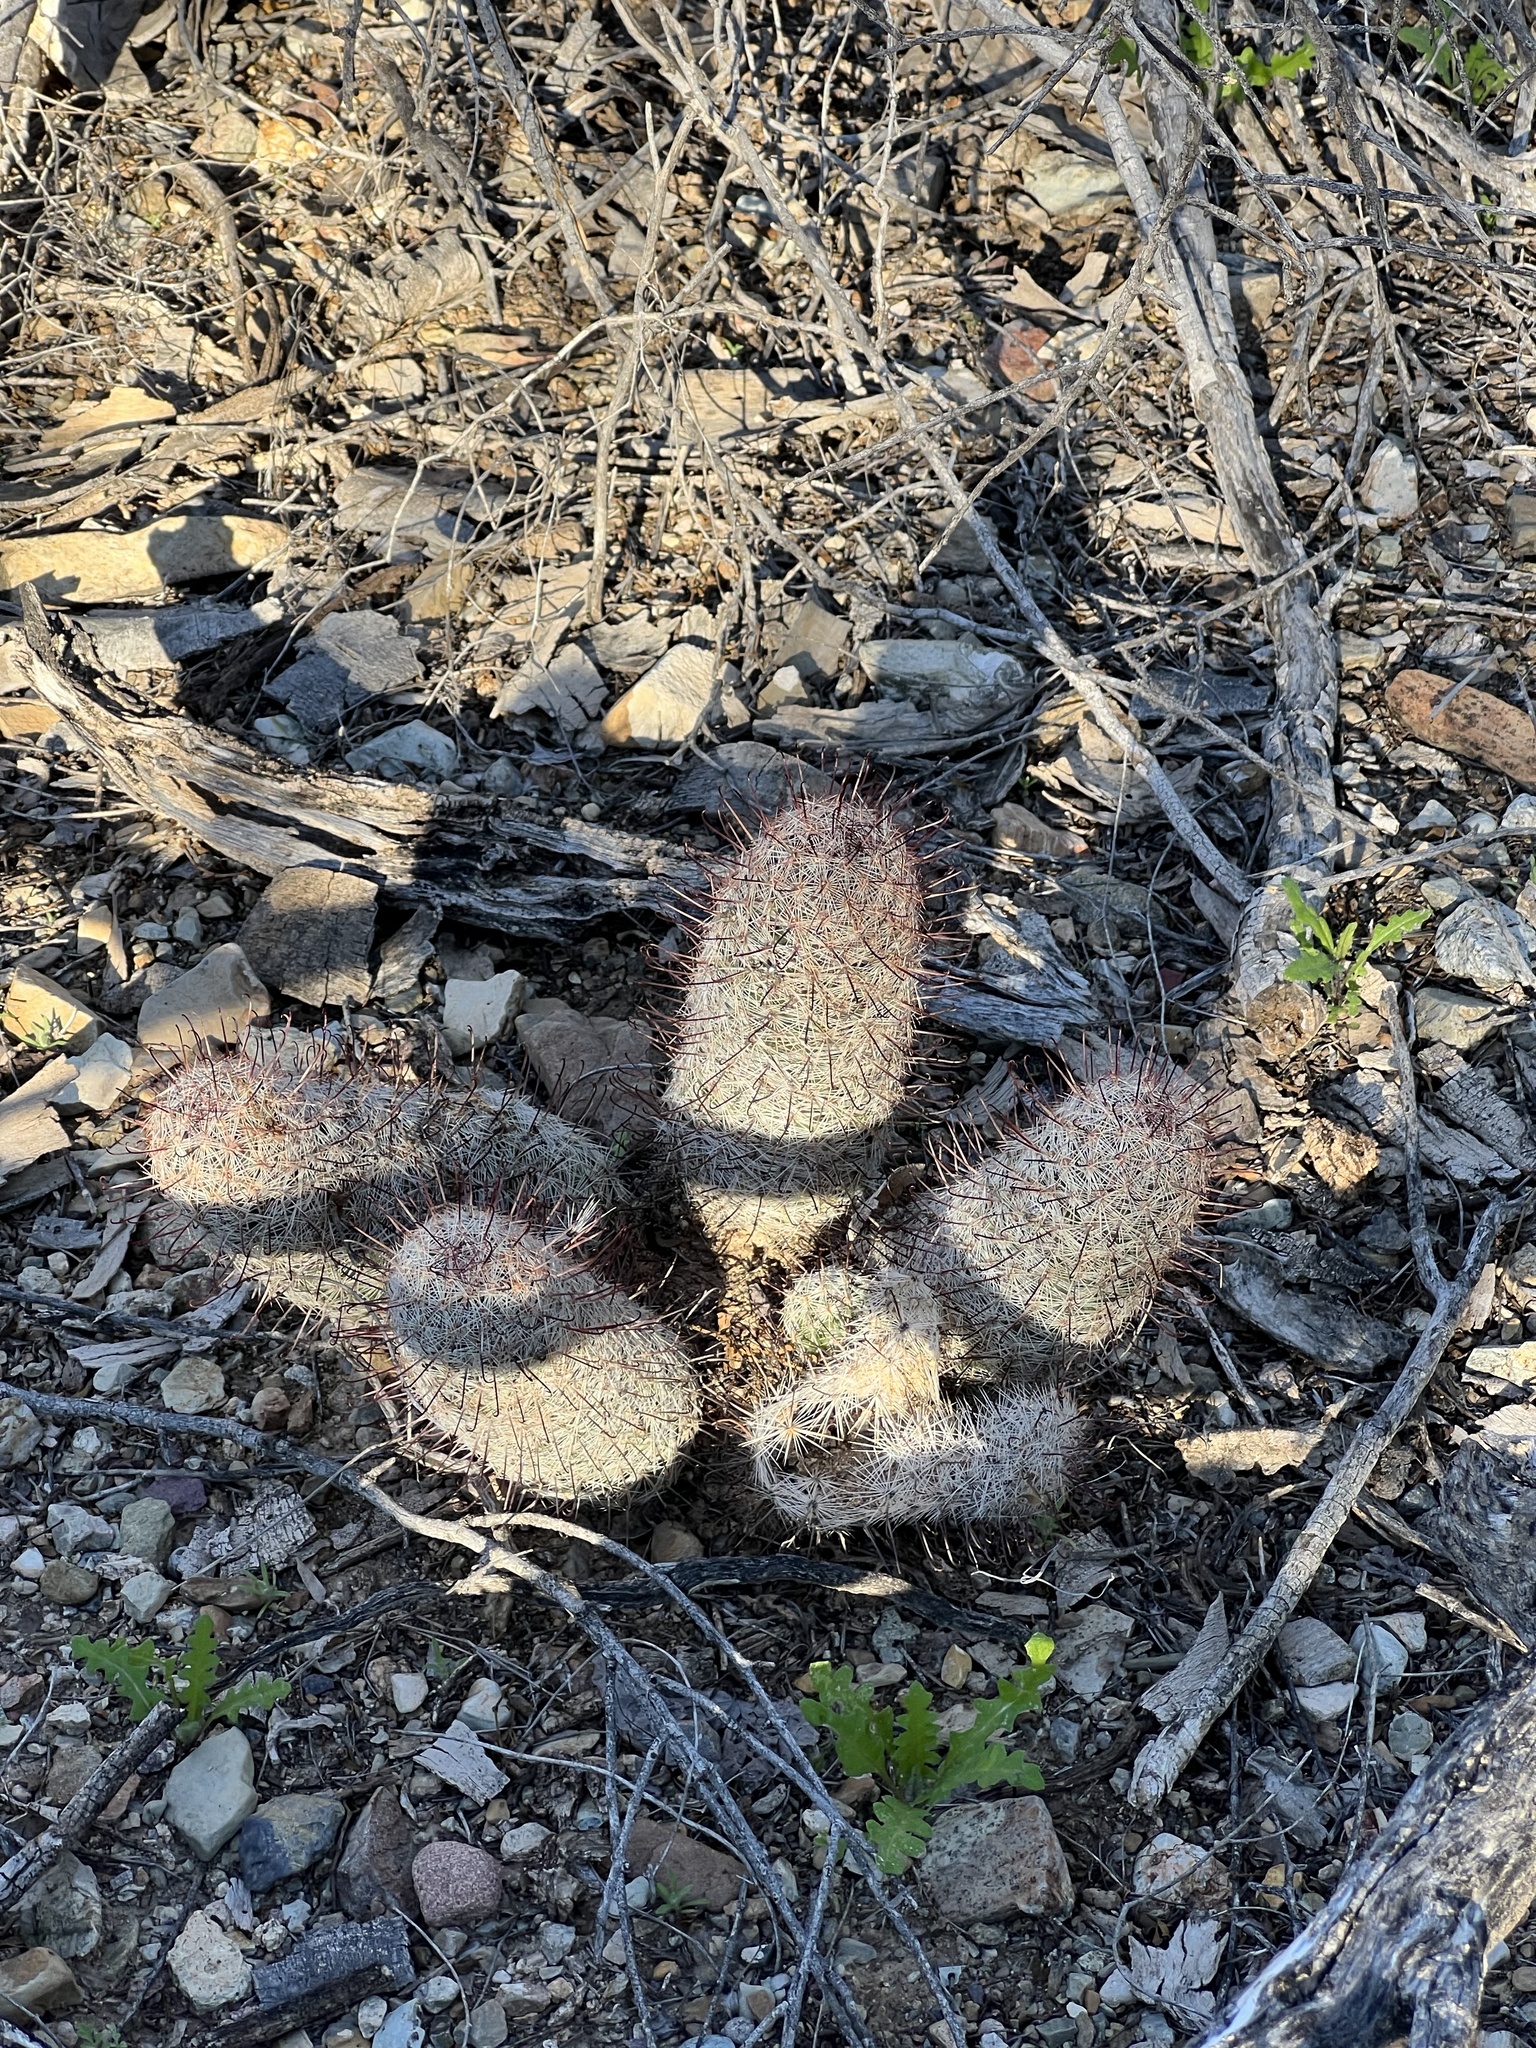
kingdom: Plantae
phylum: Tracheophyta
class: Magnoliopsida
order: Caryophyllales
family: Cactaceae
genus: Cochemiea
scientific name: Cochemiea grahamii
